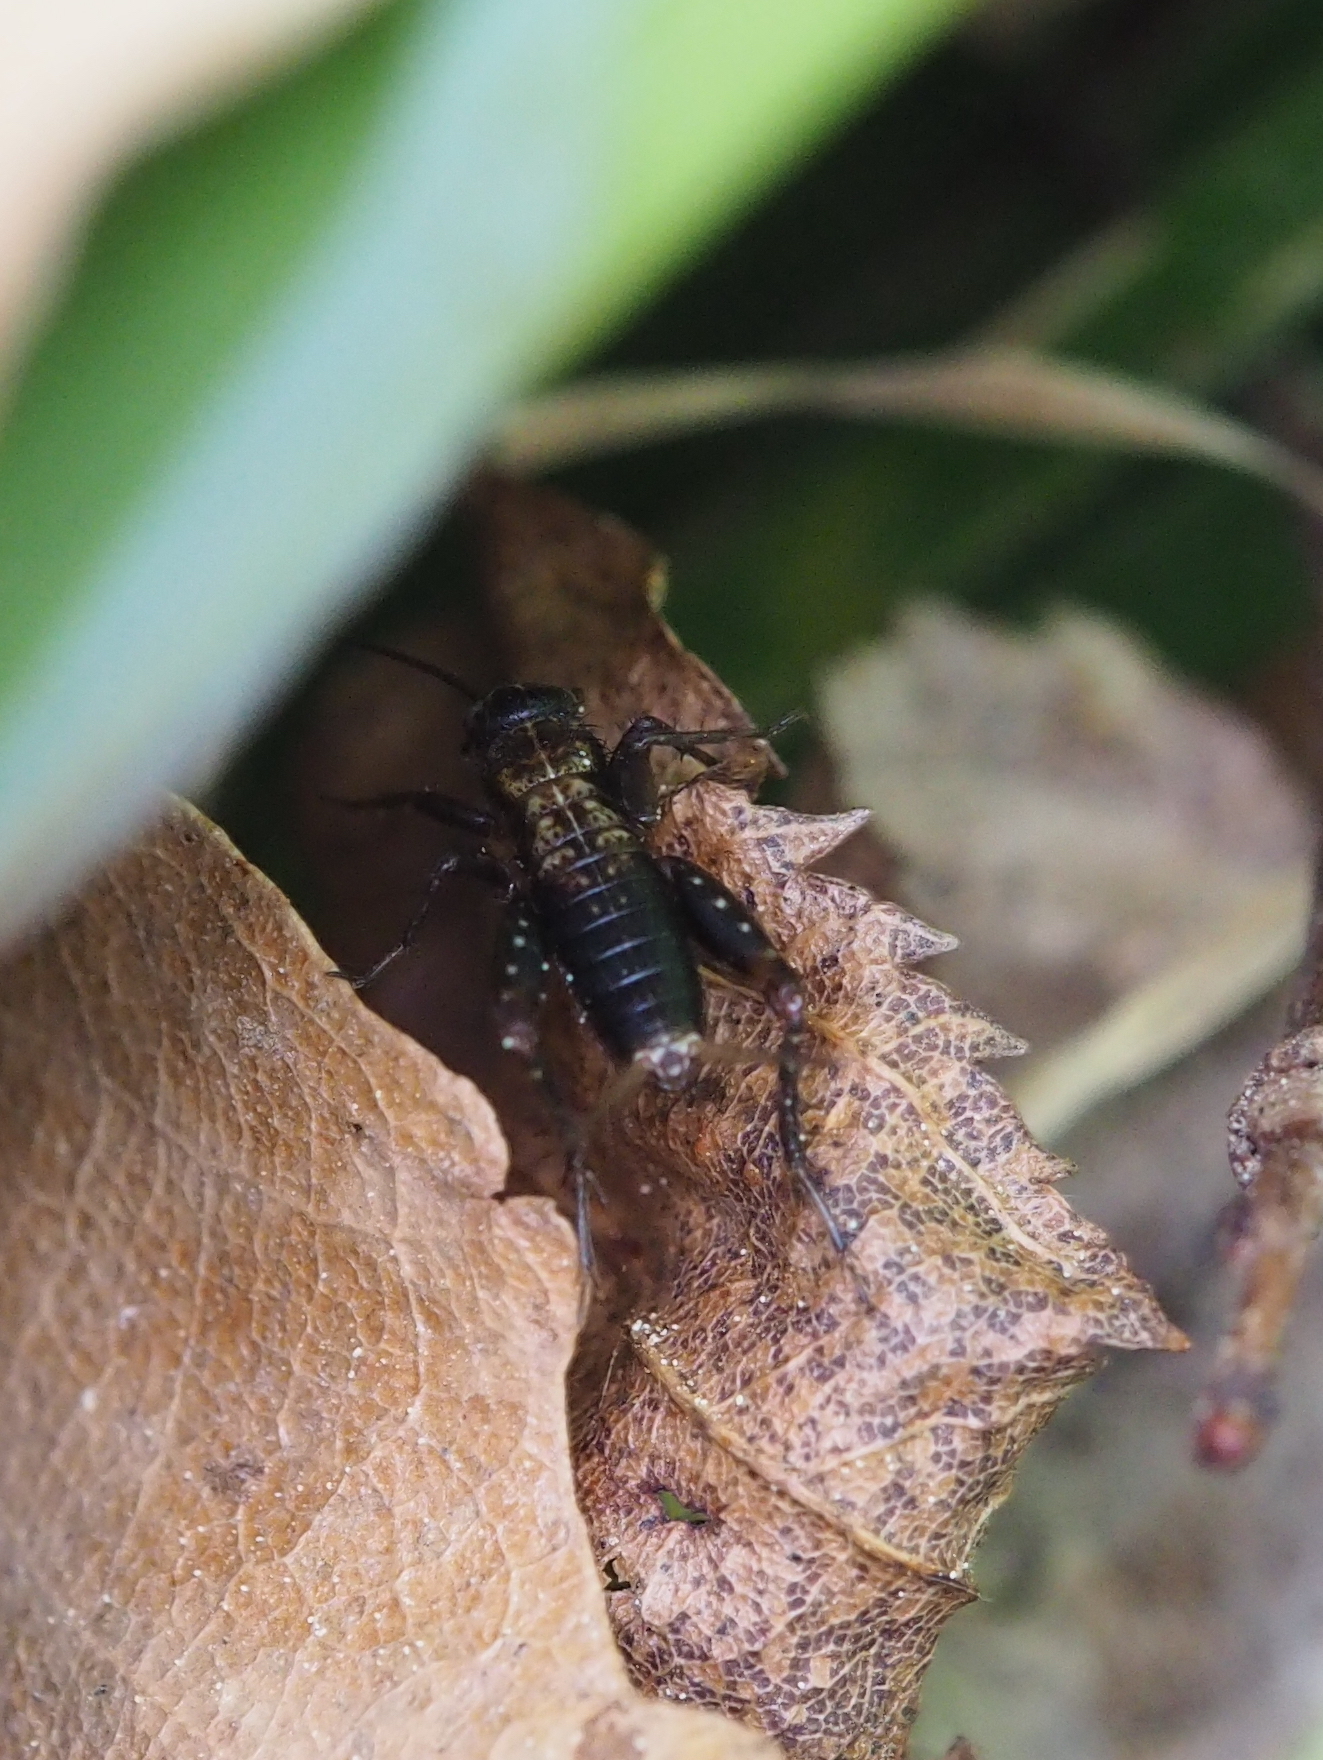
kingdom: Animalia
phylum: Arthropoda
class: Insecta
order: Orthoptera
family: Trigonidiidae
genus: Nemobius
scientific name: Nemobius sylvestris
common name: Wood-cricket
